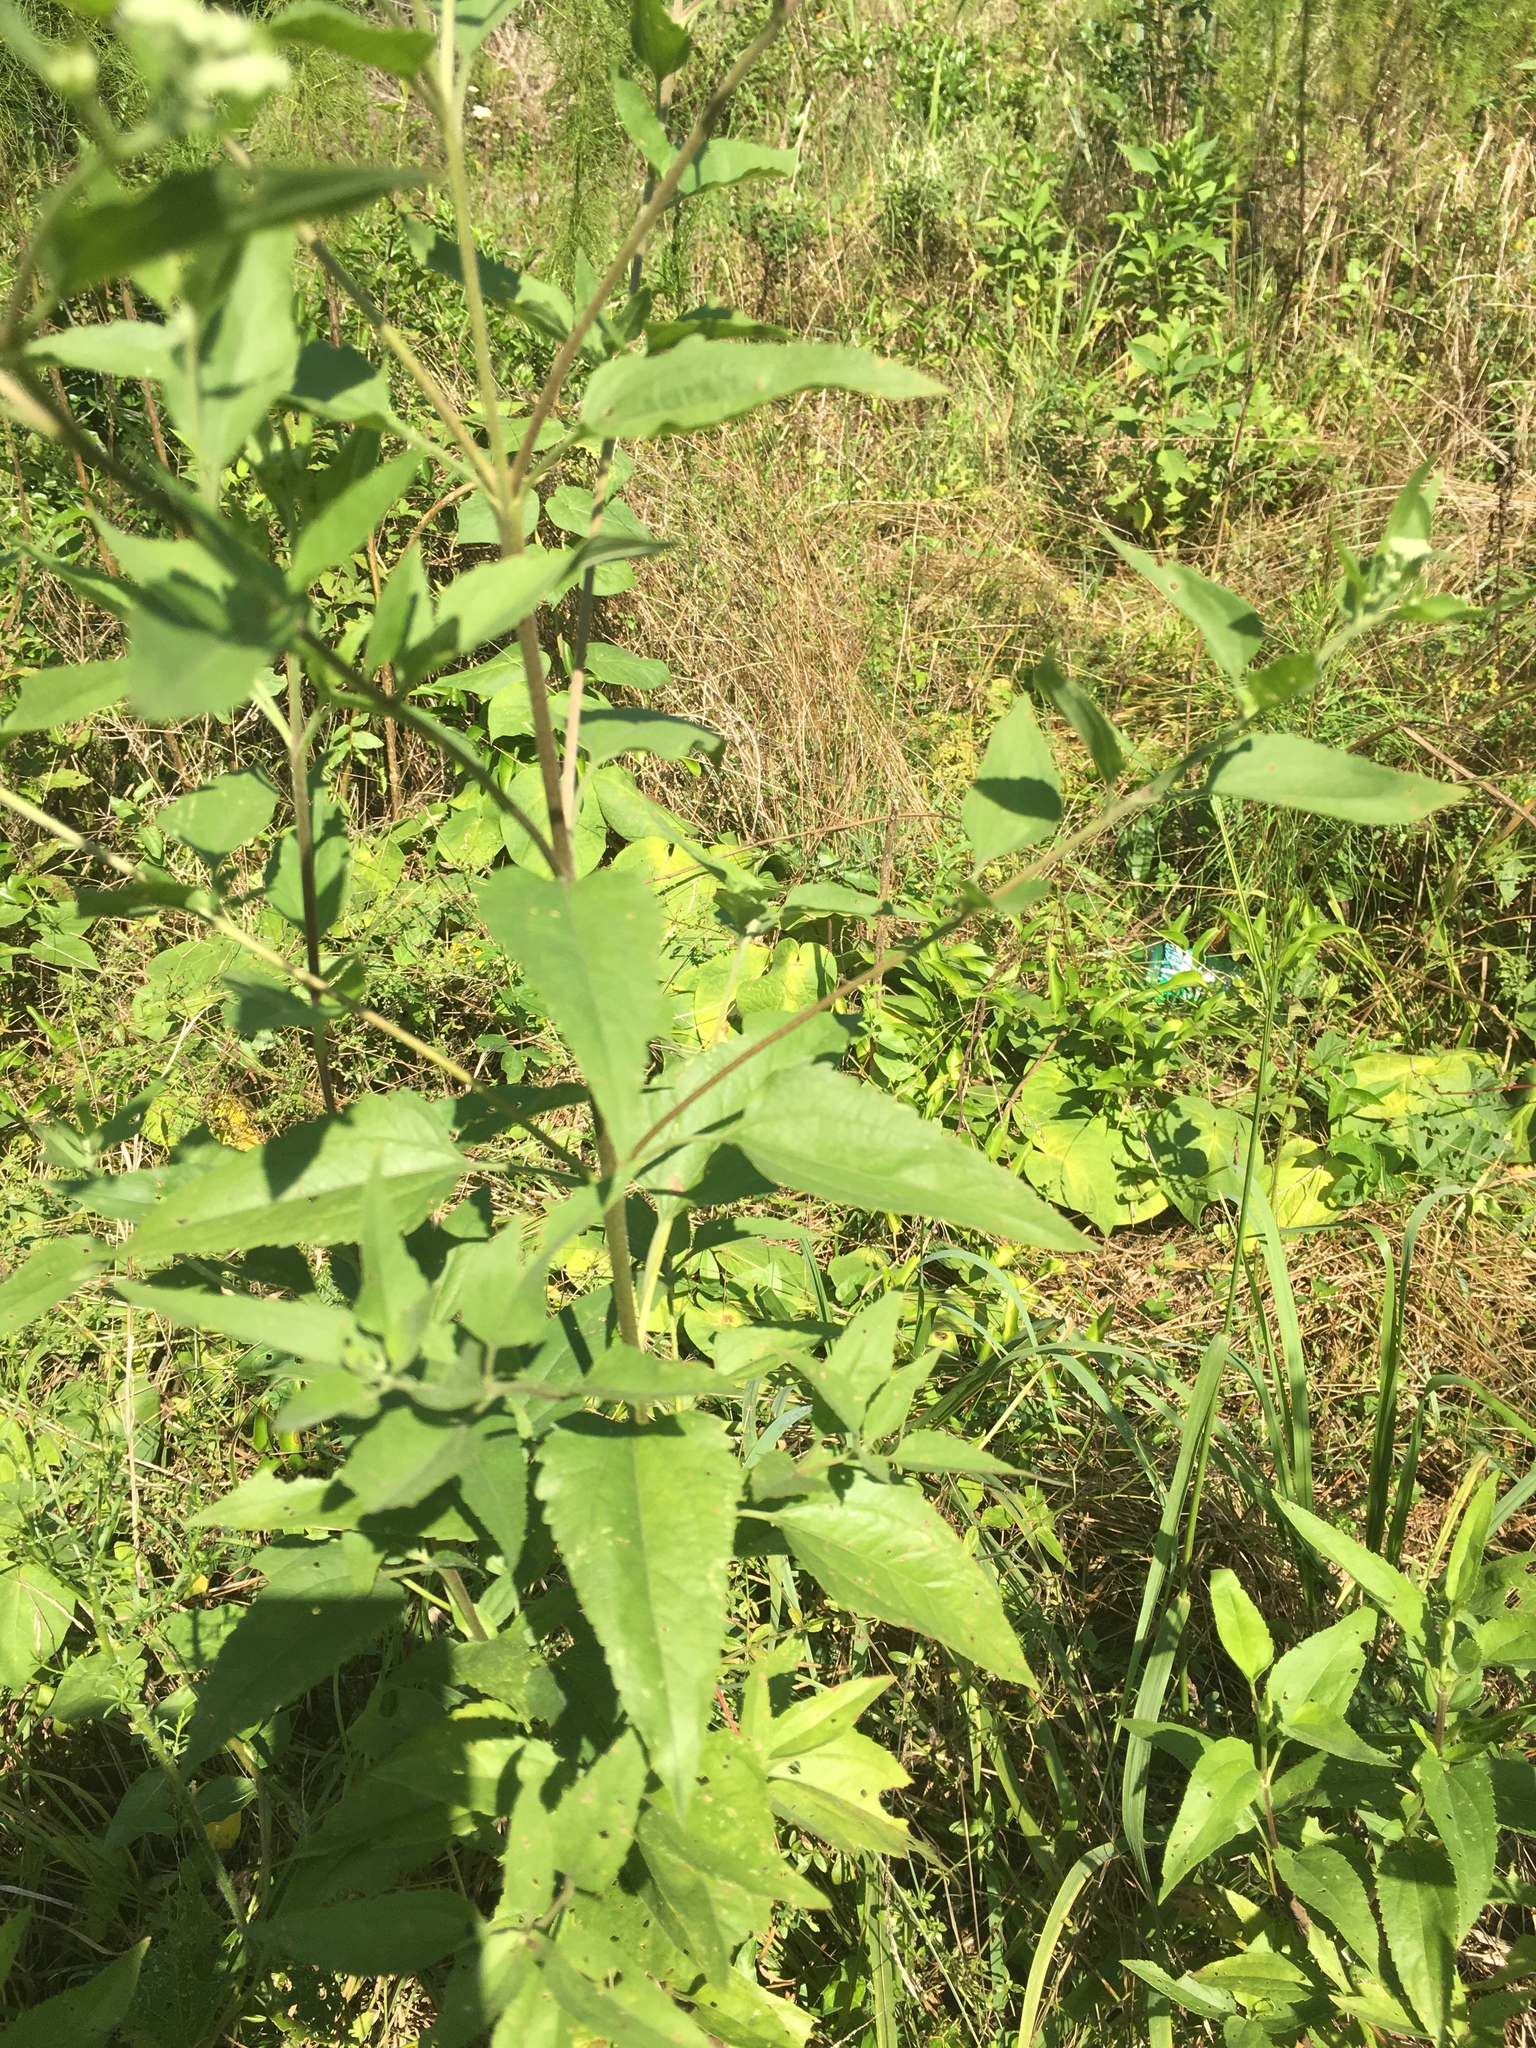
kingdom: Plantae
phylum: Tracheophyta
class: Magnoliopsida
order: Asterales
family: Asteraceae
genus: Eupatorium
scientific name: Eupatorium serotinum
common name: Late boneset
